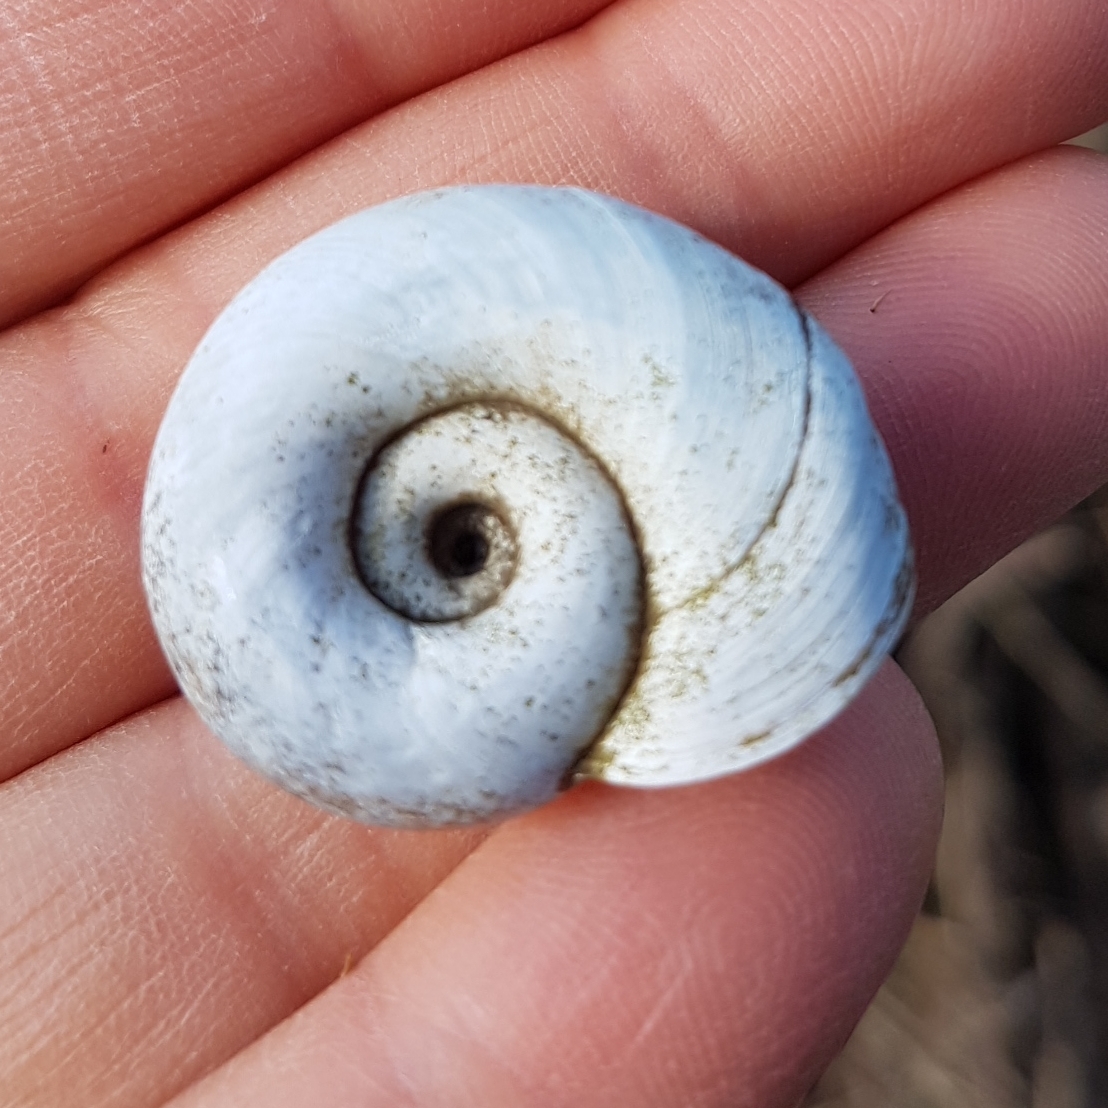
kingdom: Animalia
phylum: Mollusca
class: Gastropoda
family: Planorbidae
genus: Planorbarius
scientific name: Planorbarius corneus
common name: Great ramshorn
